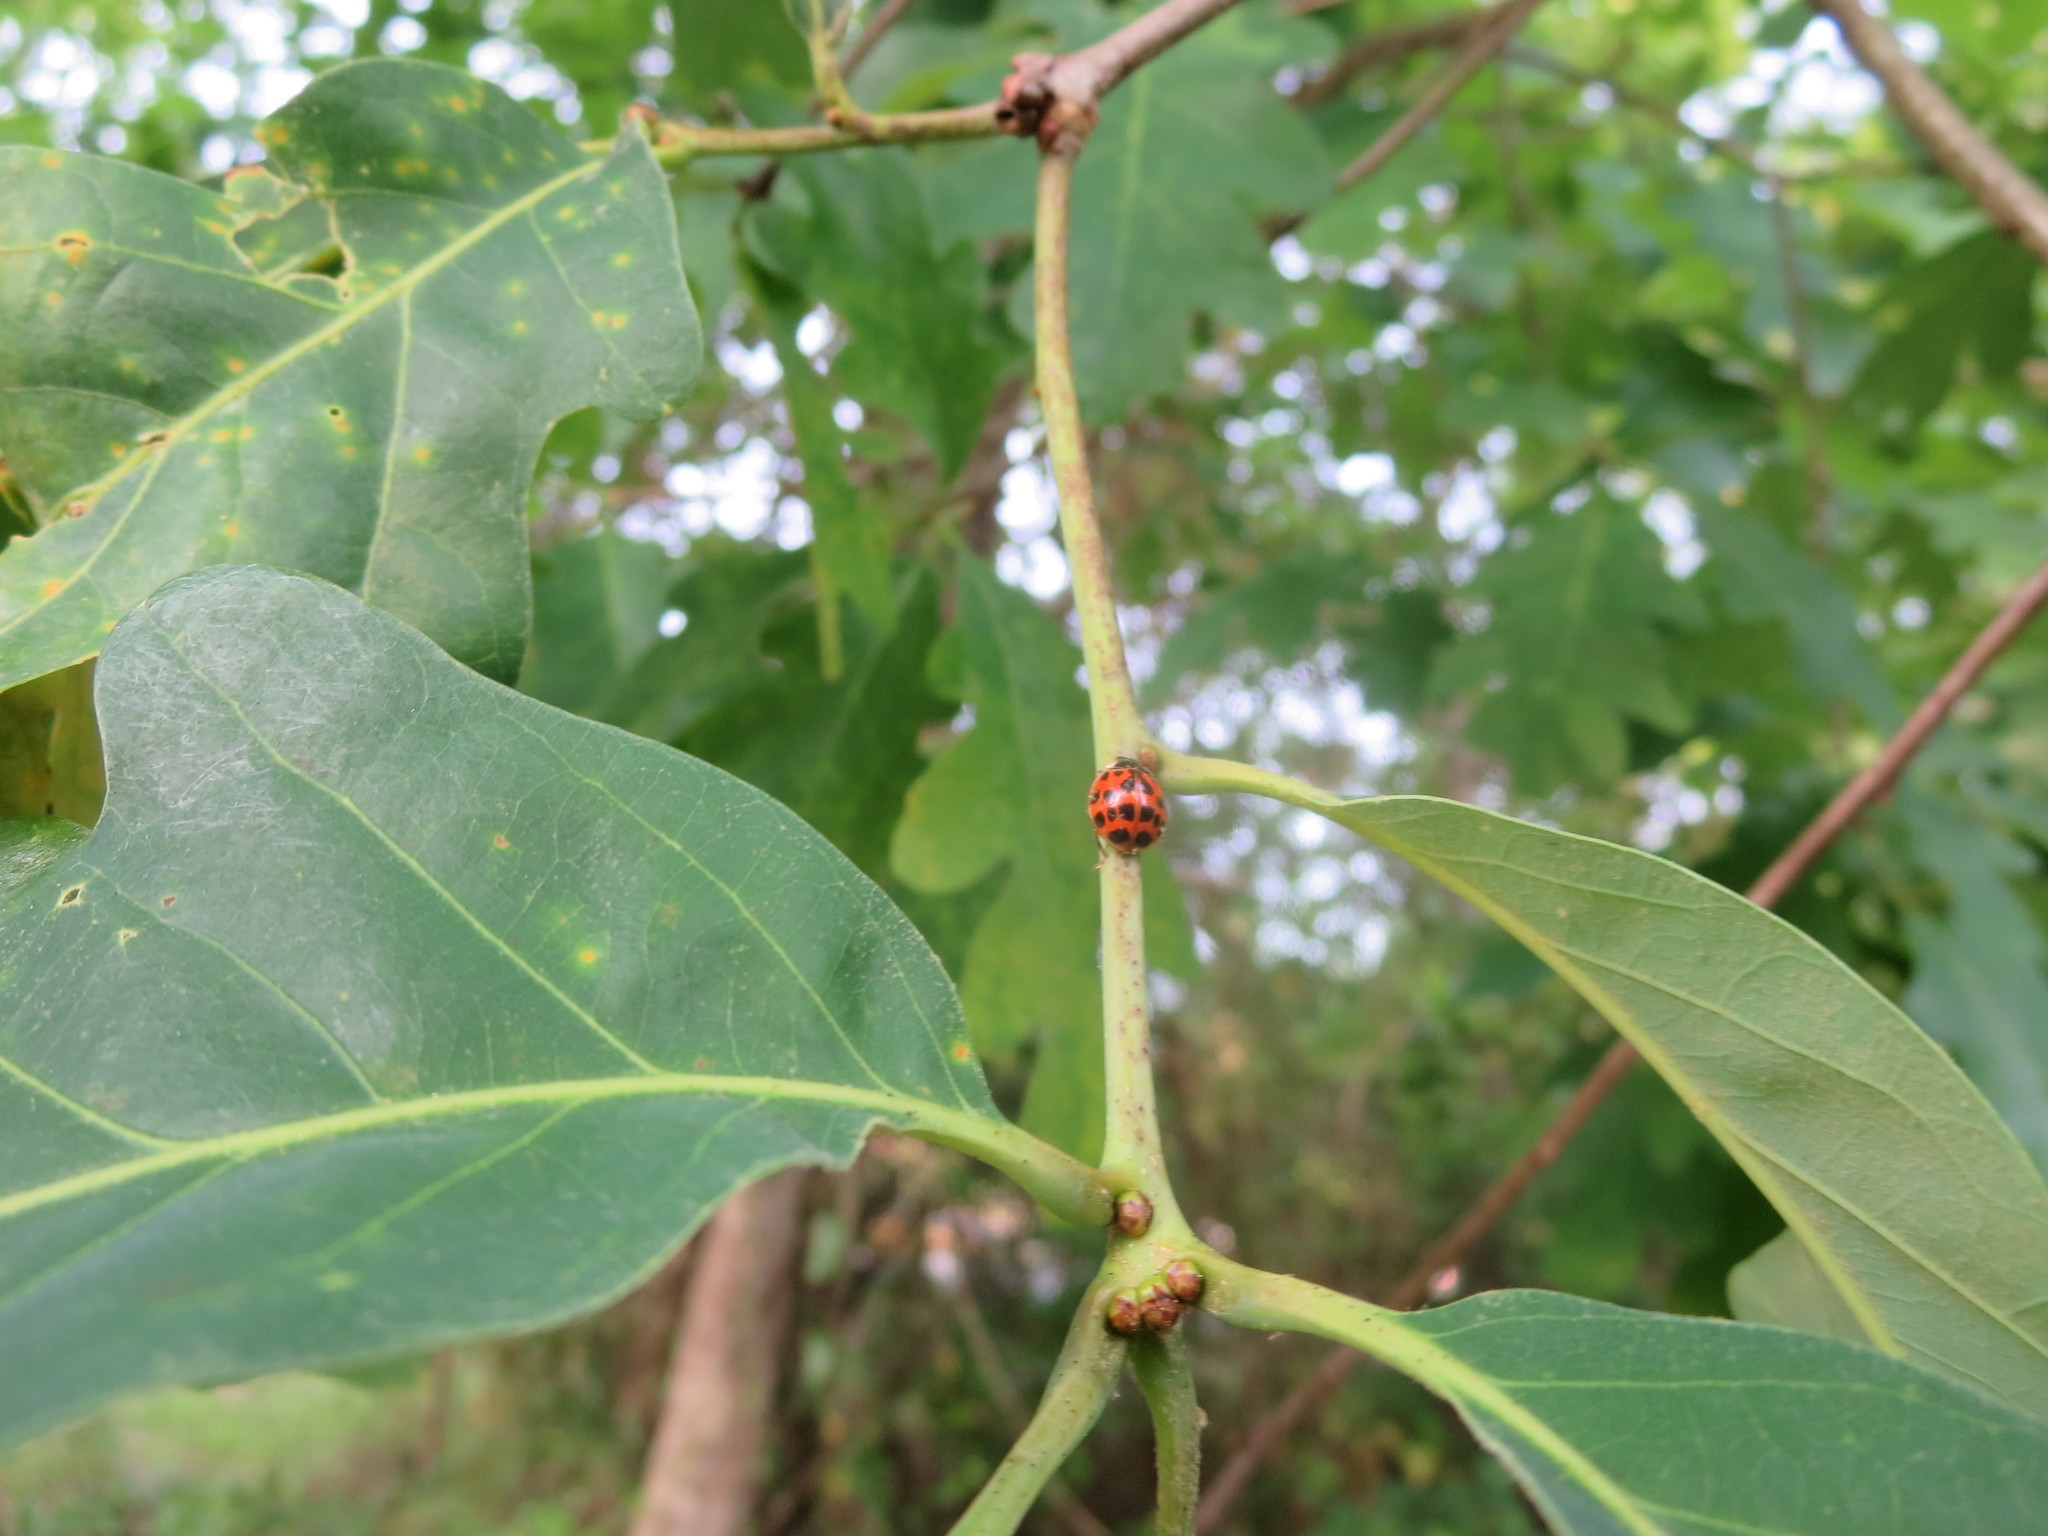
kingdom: Animalia
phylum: Arthropoda
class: Insecta
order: Coleoptera
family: Coccinellidae
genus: Harmonia
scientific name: Harmonia axyridis
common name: Harlequin ladybird
